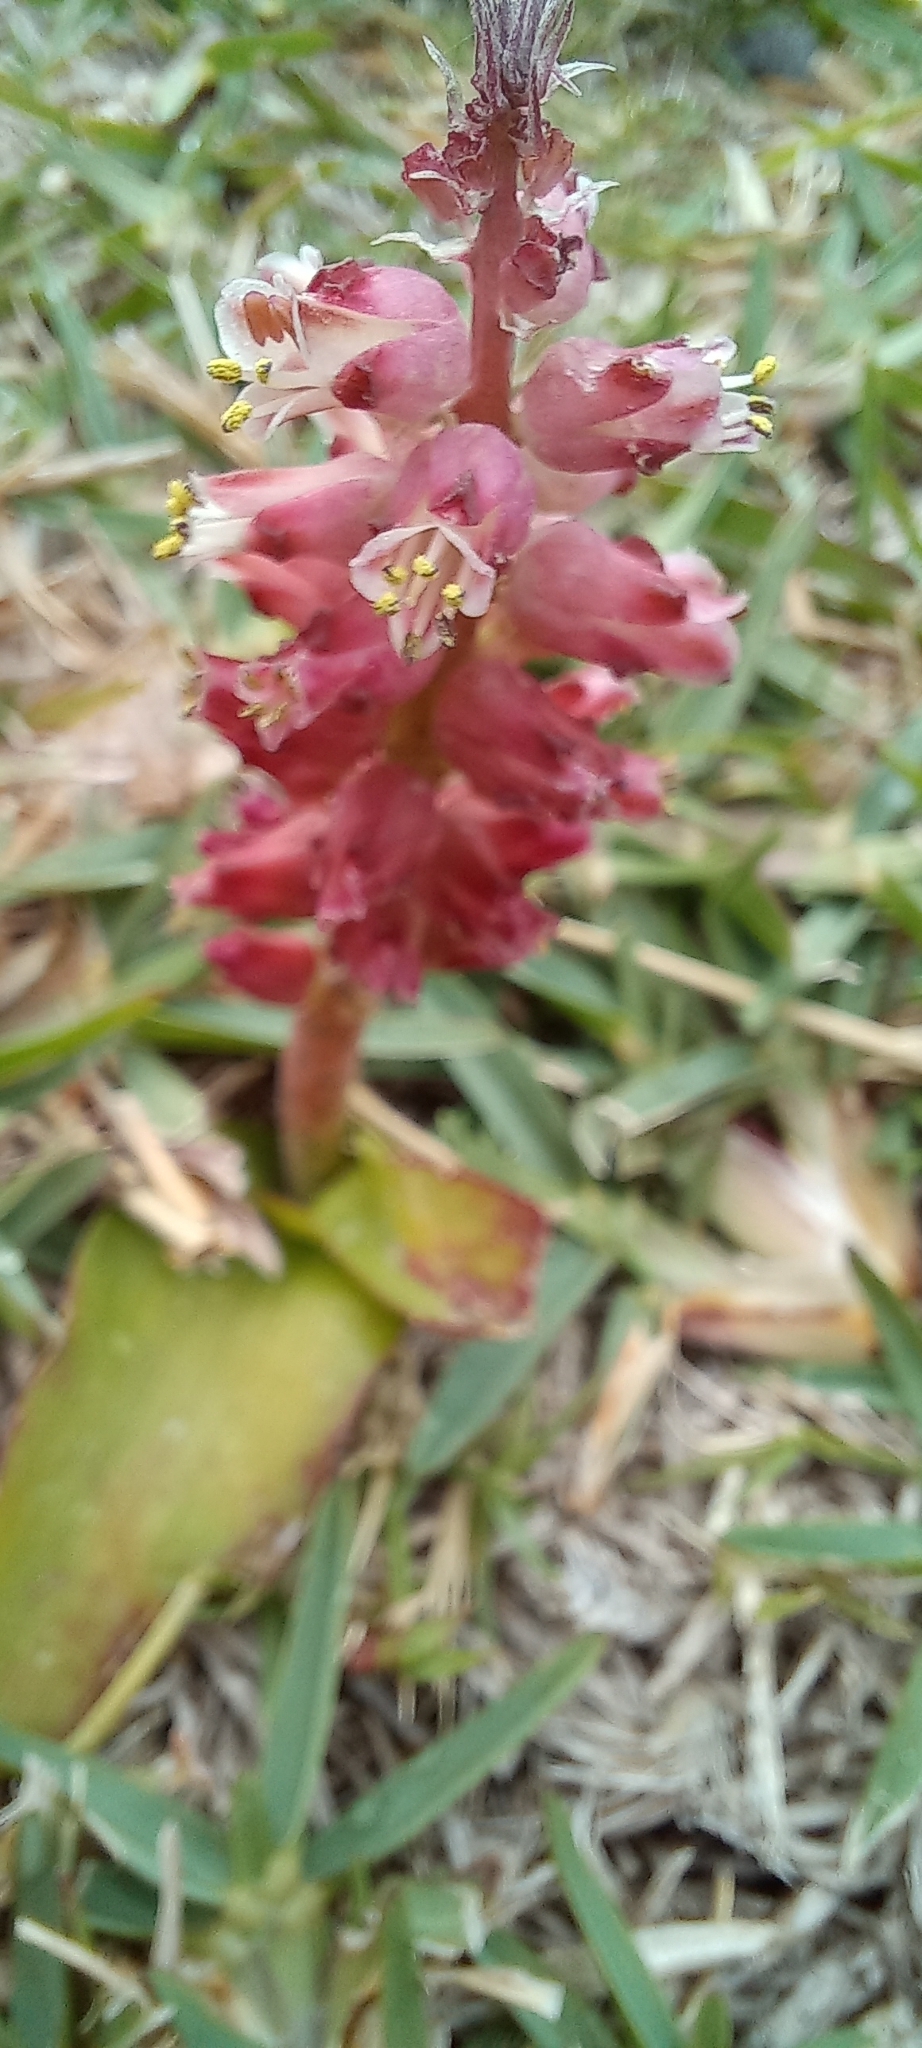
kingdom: Plantae
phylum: Tracheophyta
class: Liliopsida
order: Asparagales
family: Asparagaceae
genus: Lachenalia
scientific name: Lachenalia peersii
